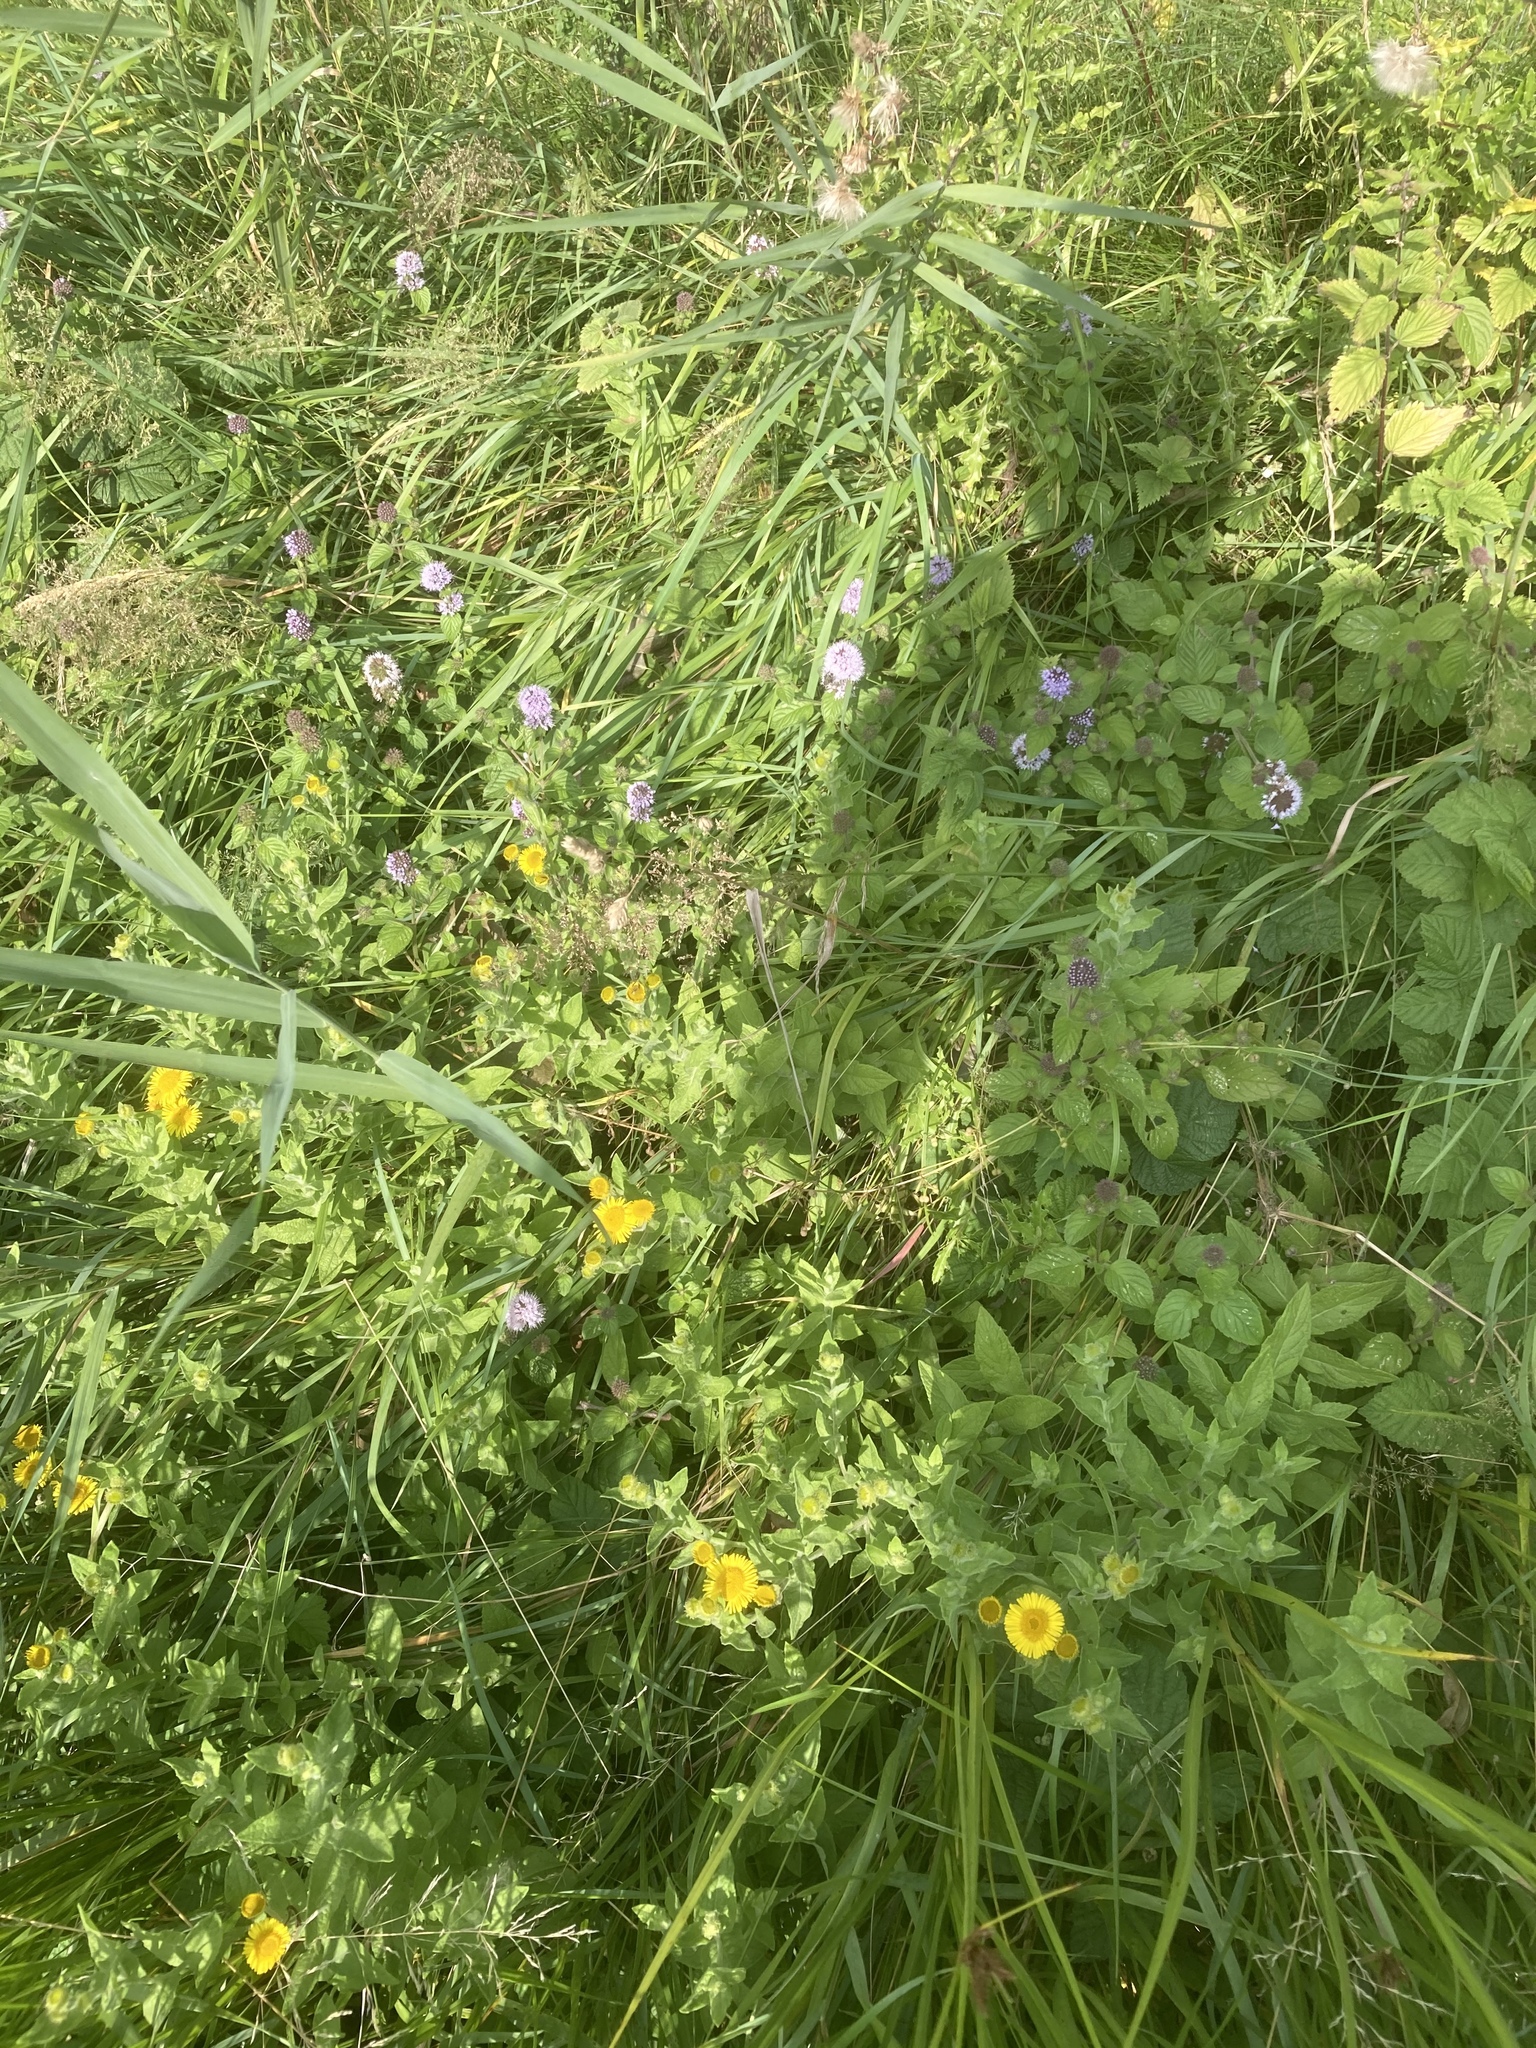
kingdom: Plantae
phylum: Tracheophyta
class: Magnoliopsida
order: Asterales
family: Asteraceae
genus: Pulicaria
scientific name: Pulicaria dysenterica
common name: Common fleabane
